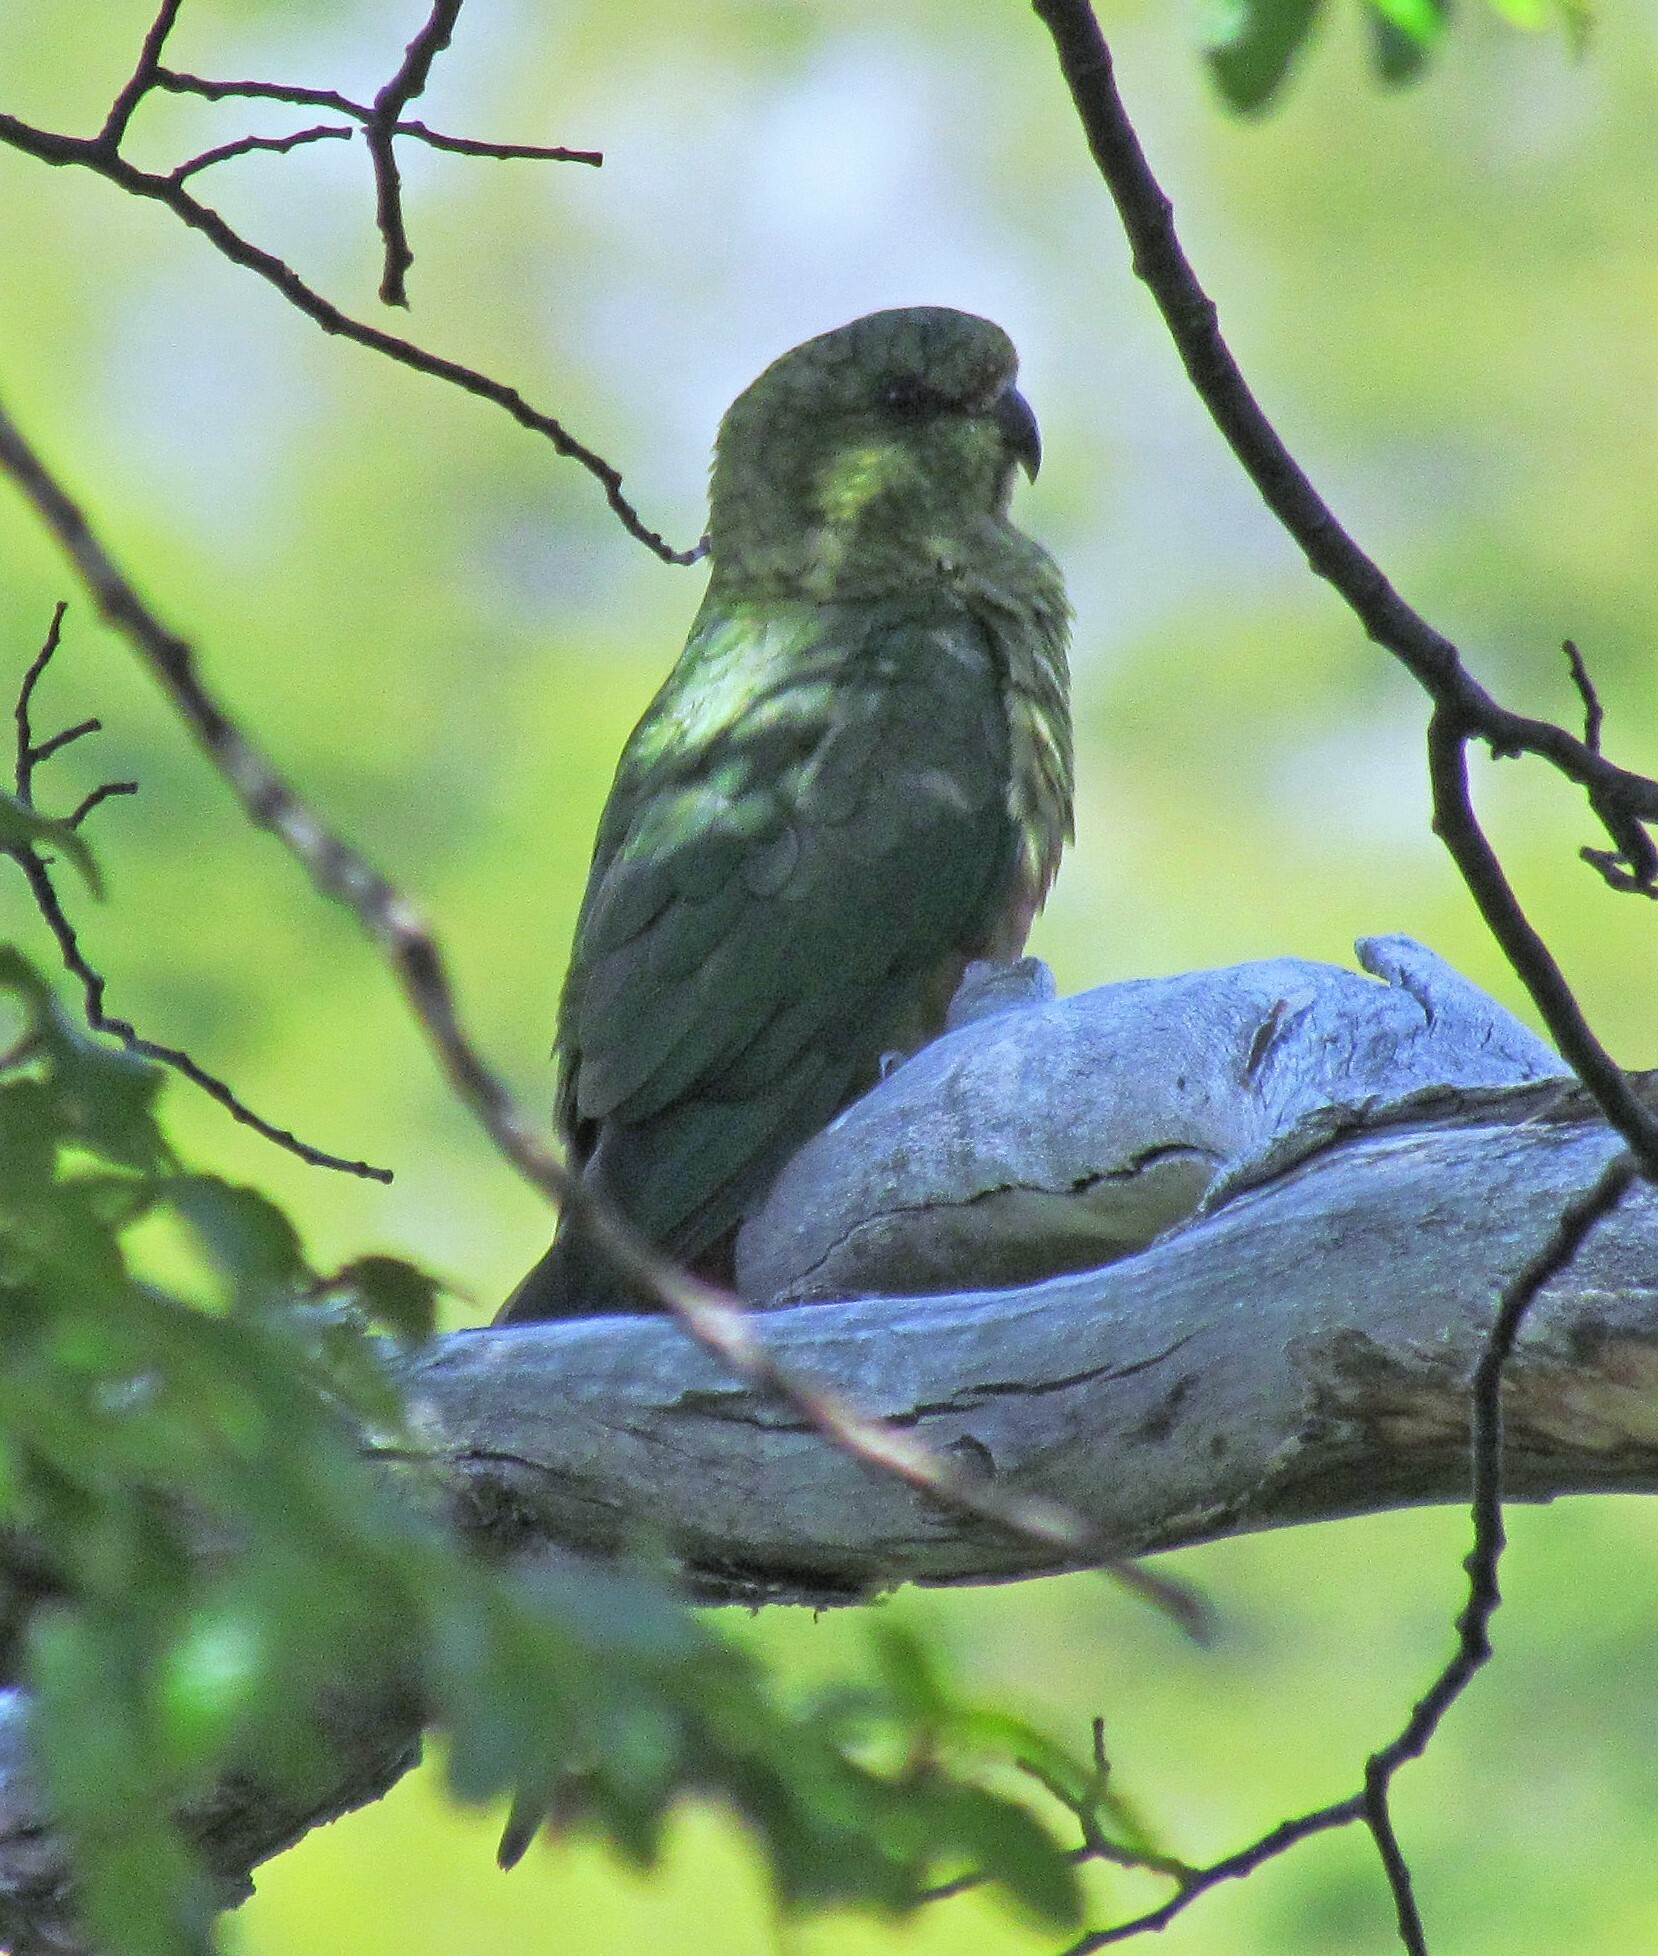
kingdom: Animalia
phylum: Chordata
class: Aves
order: Psittaciformes
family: Psittacidae
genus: Enicognathus
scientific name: Enicognathus ferrugineus
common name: Austral parakeet
